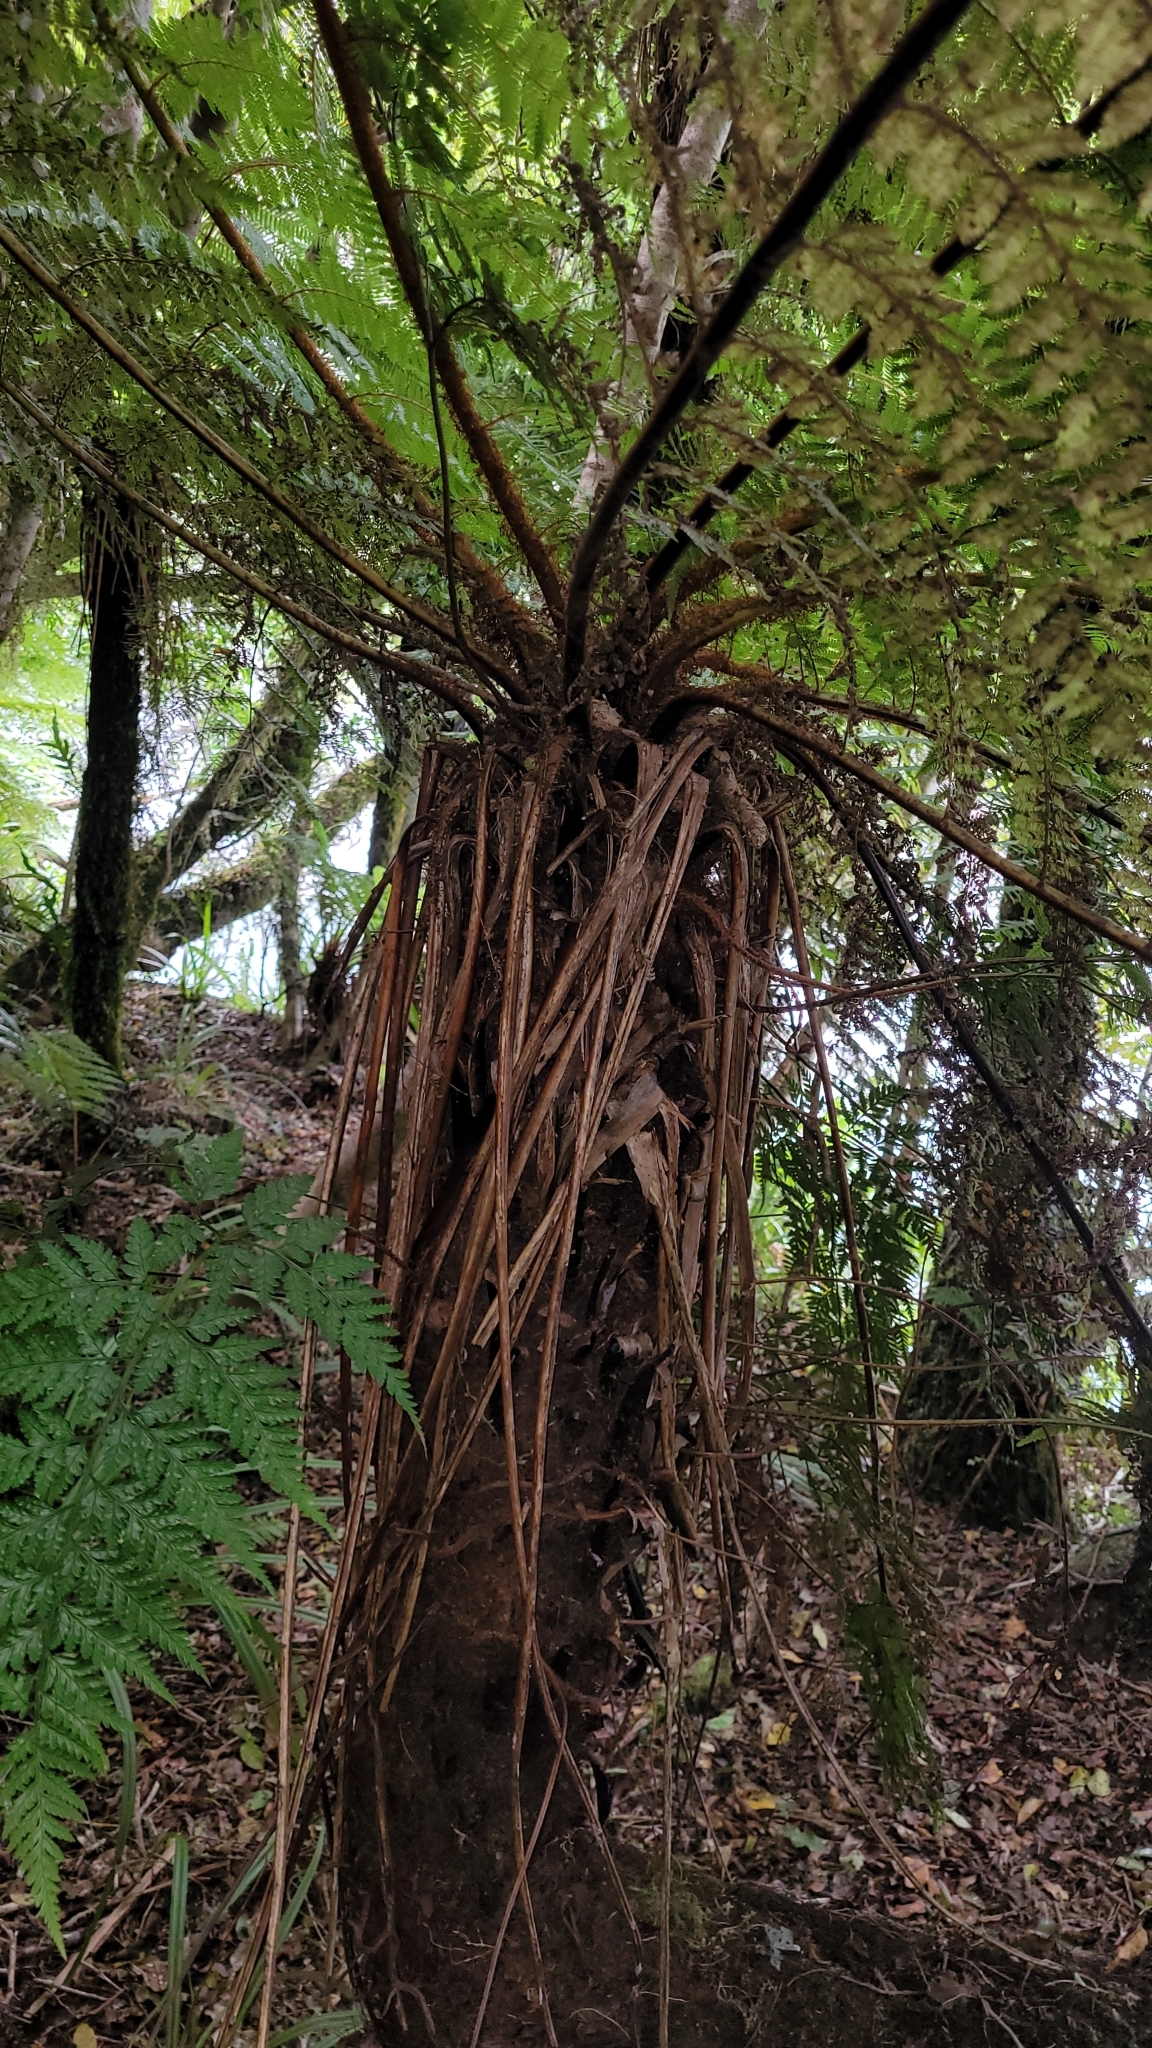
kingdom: Plantae
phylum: Tracheophyta
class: Polypodiopsida
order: Cyatheales
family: Cyatheaceae
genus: Alsophila
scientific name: Alsophila smithii
